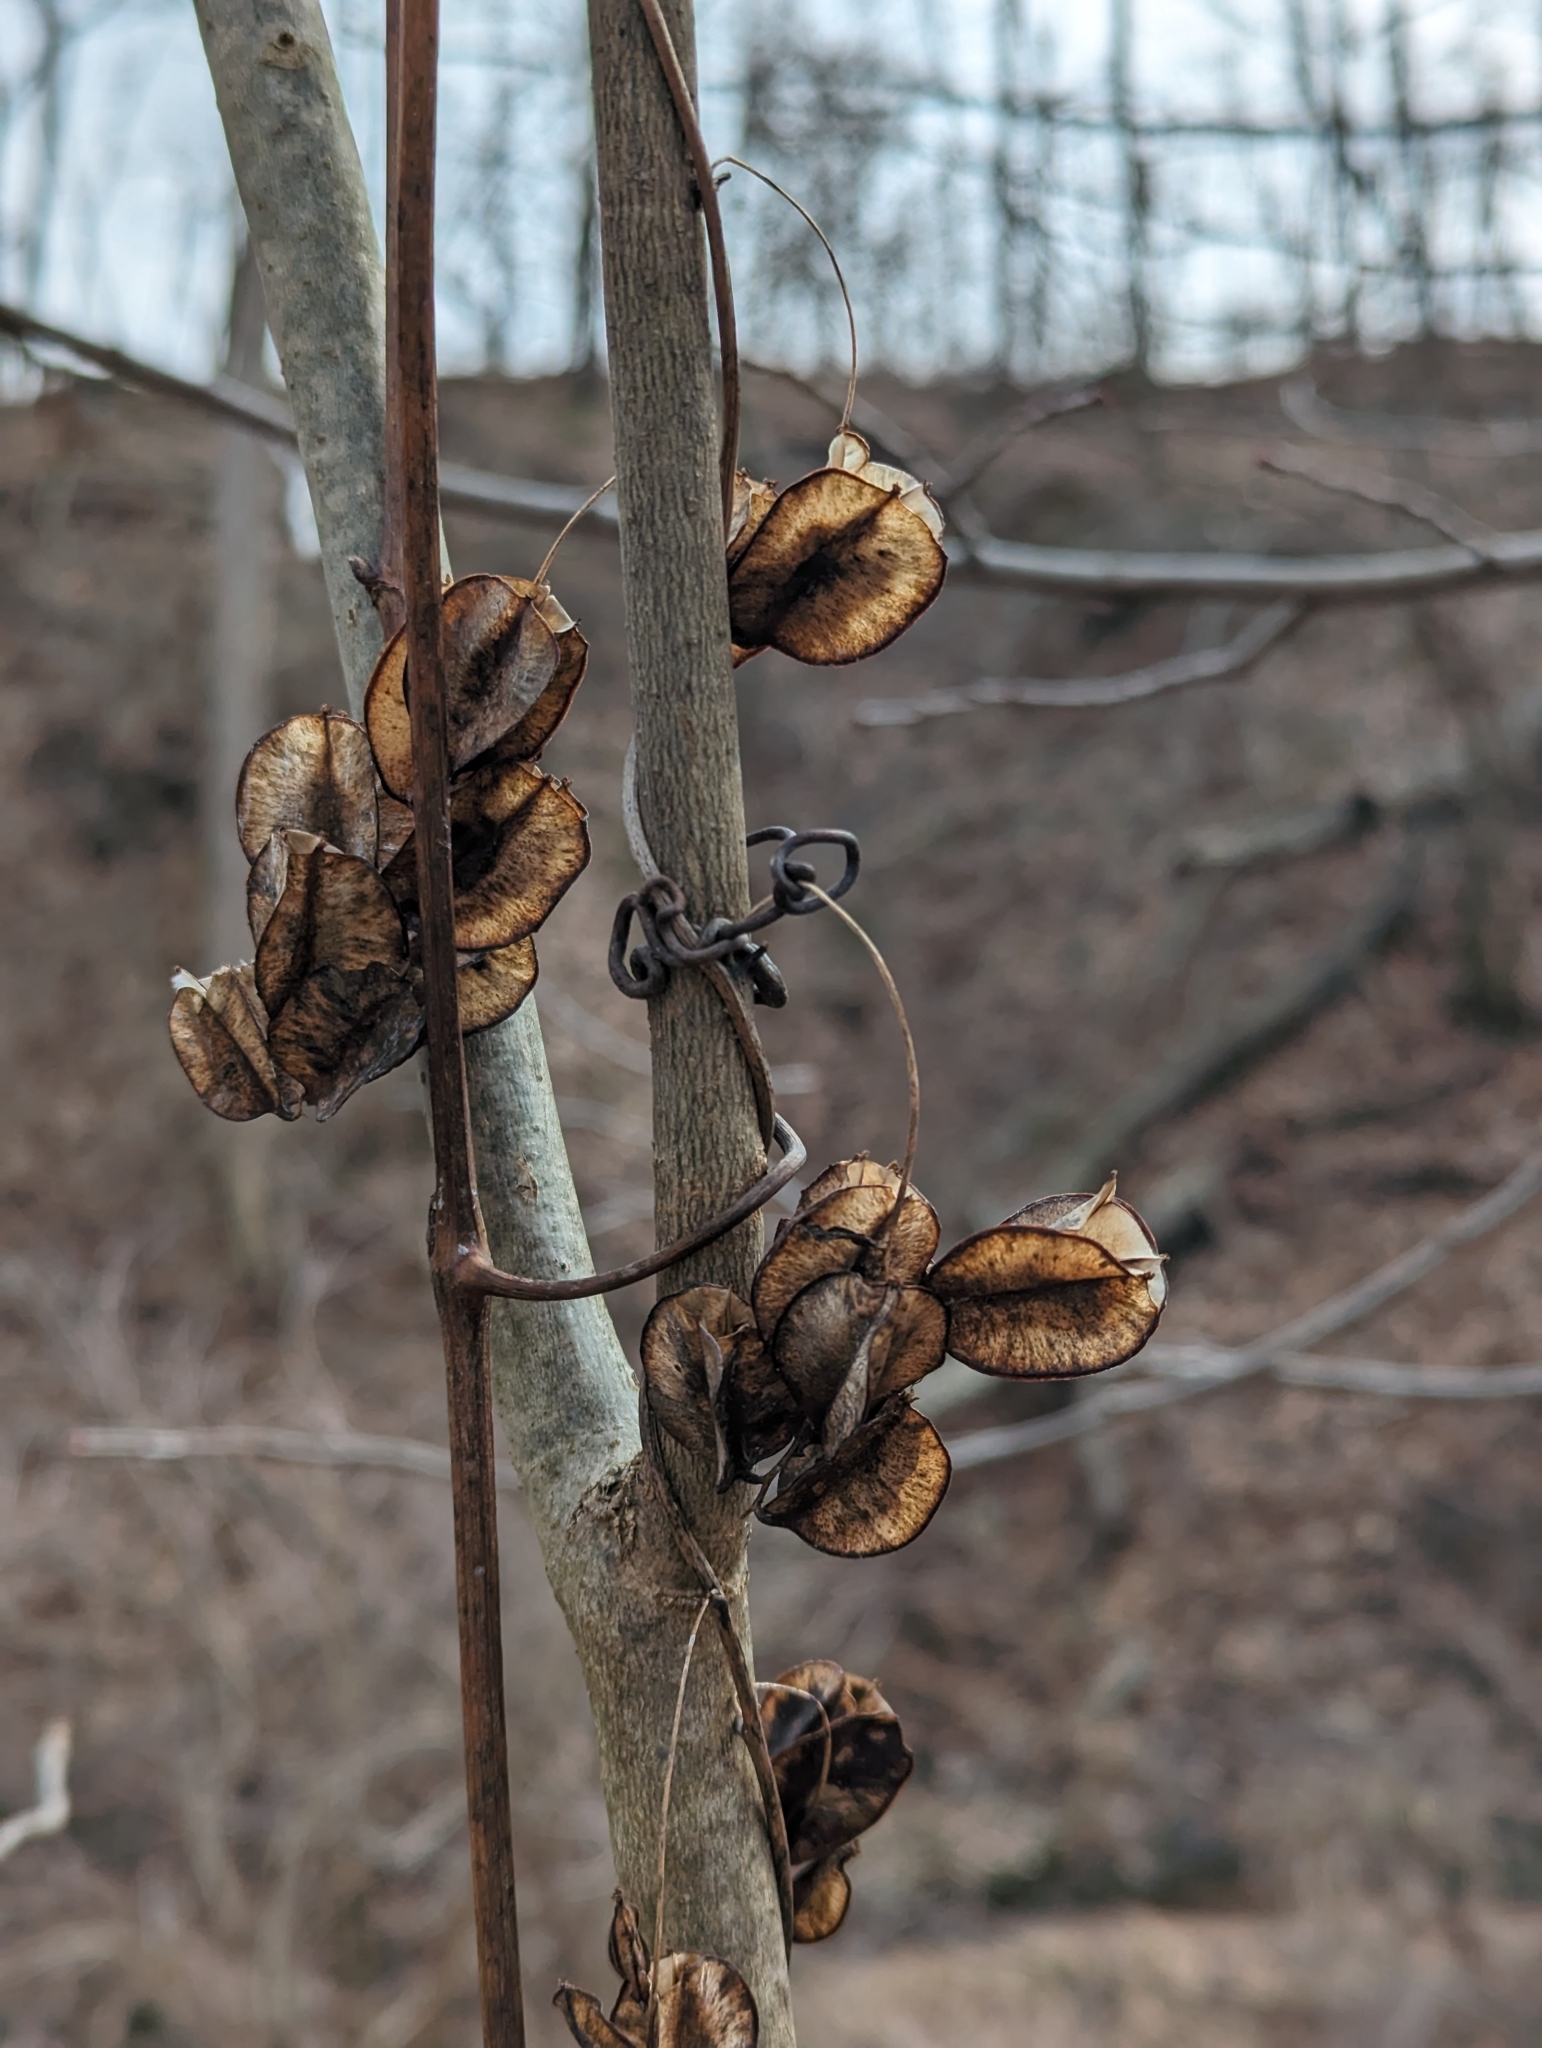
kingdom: Plantae
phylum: Tracheophyta
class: Liliopsida
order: Dioscoreales
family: Dioscoreaceae
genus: Dioscorea
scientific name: Dioscorea villosa
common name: Wild yam
